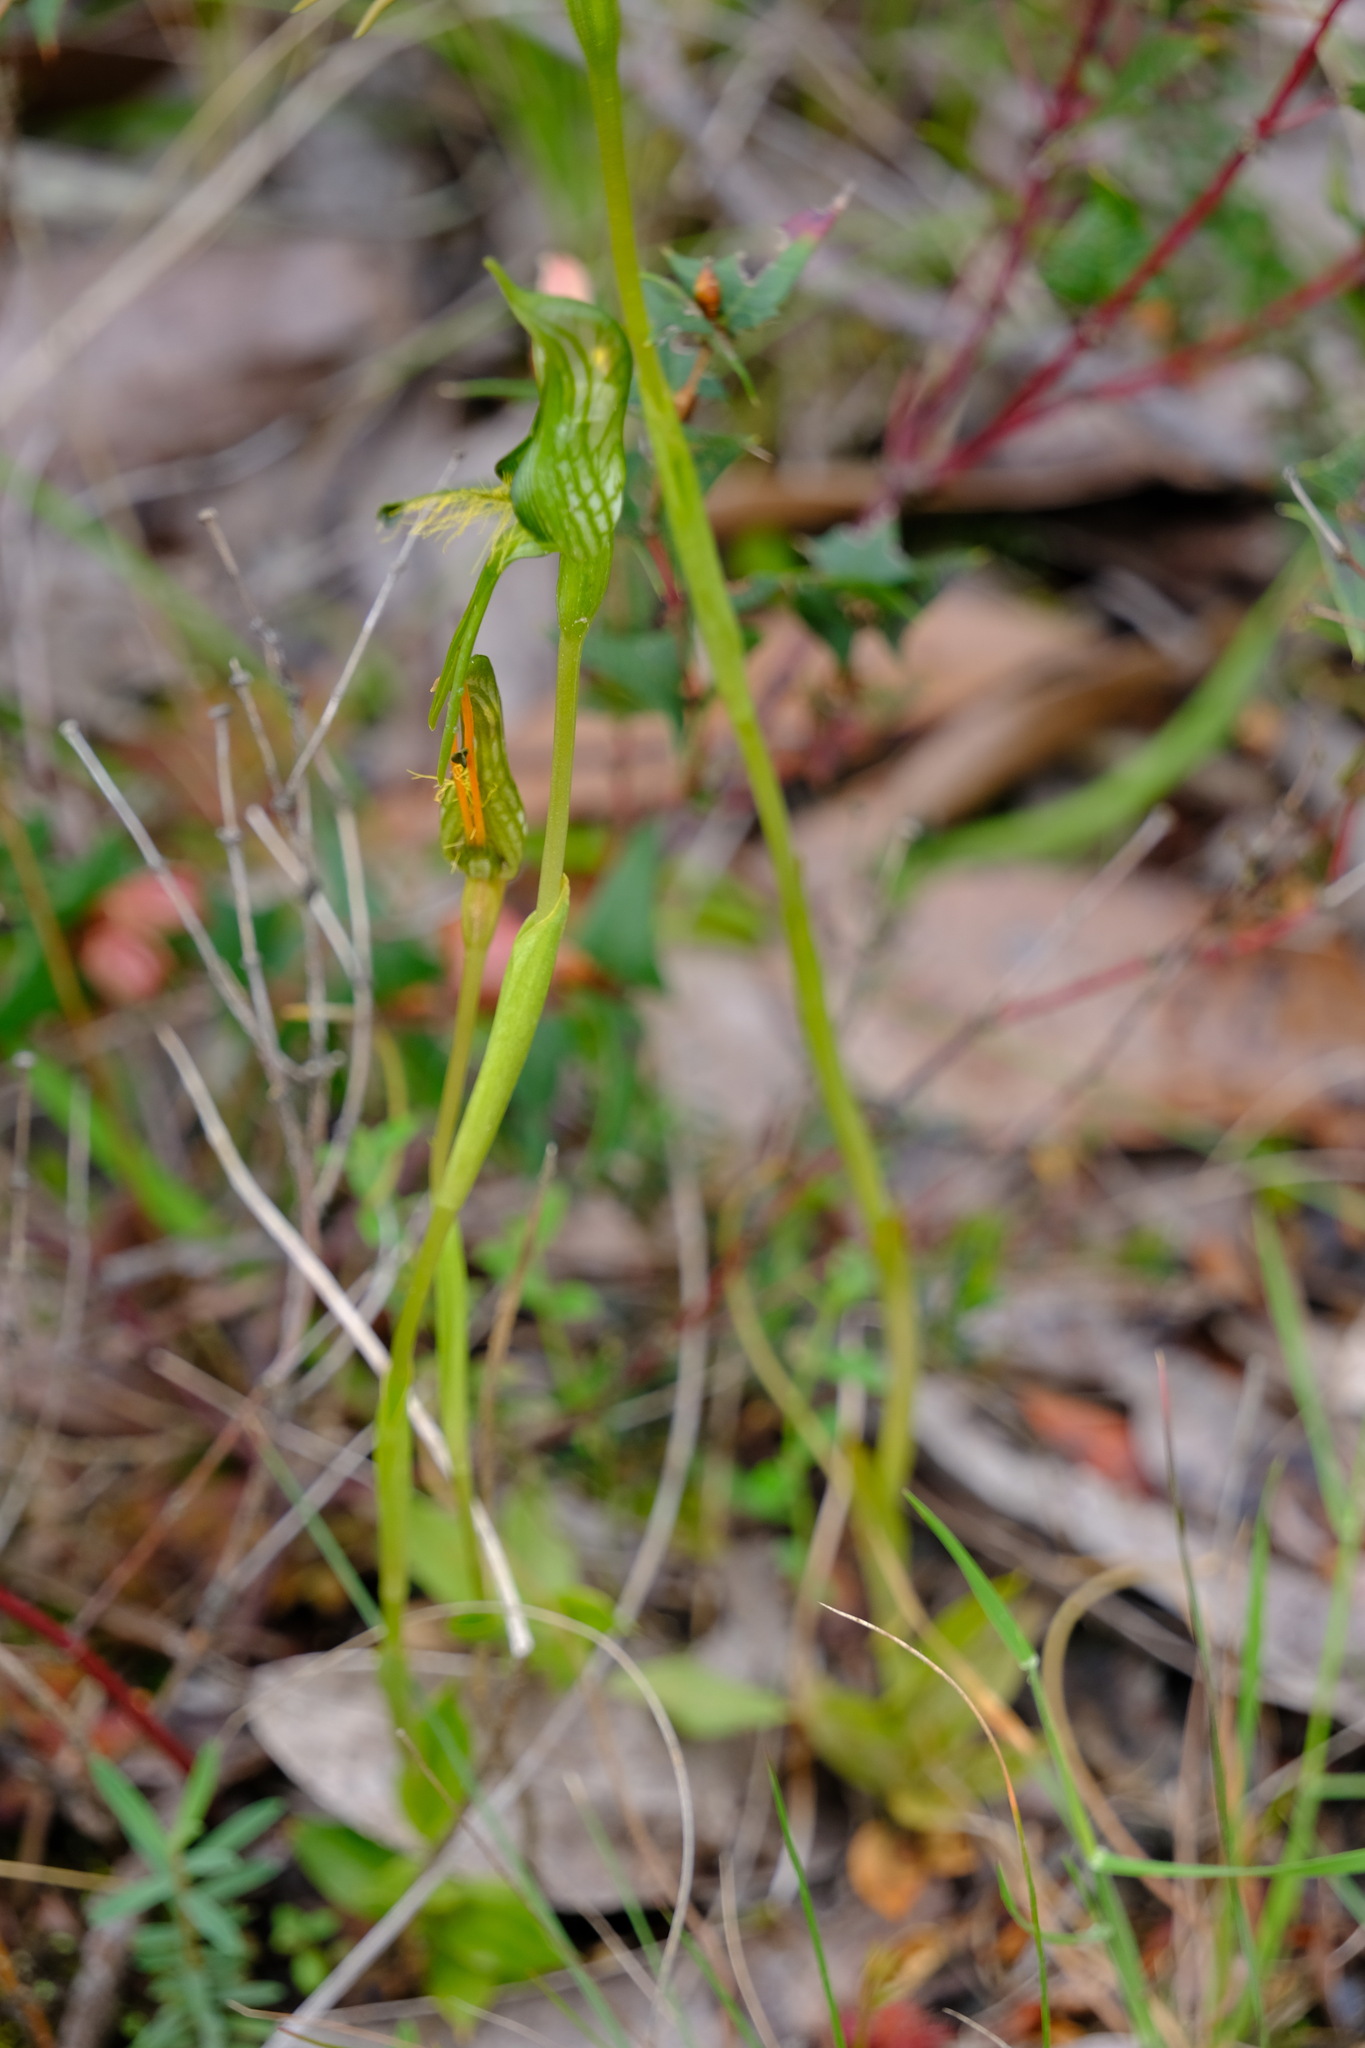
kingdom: Plantae
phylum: Tracheophyta
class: Liliopsida
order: Asparagales
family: Orchidaceae
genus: Pterostylis
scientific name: Pterostylis unicornis
